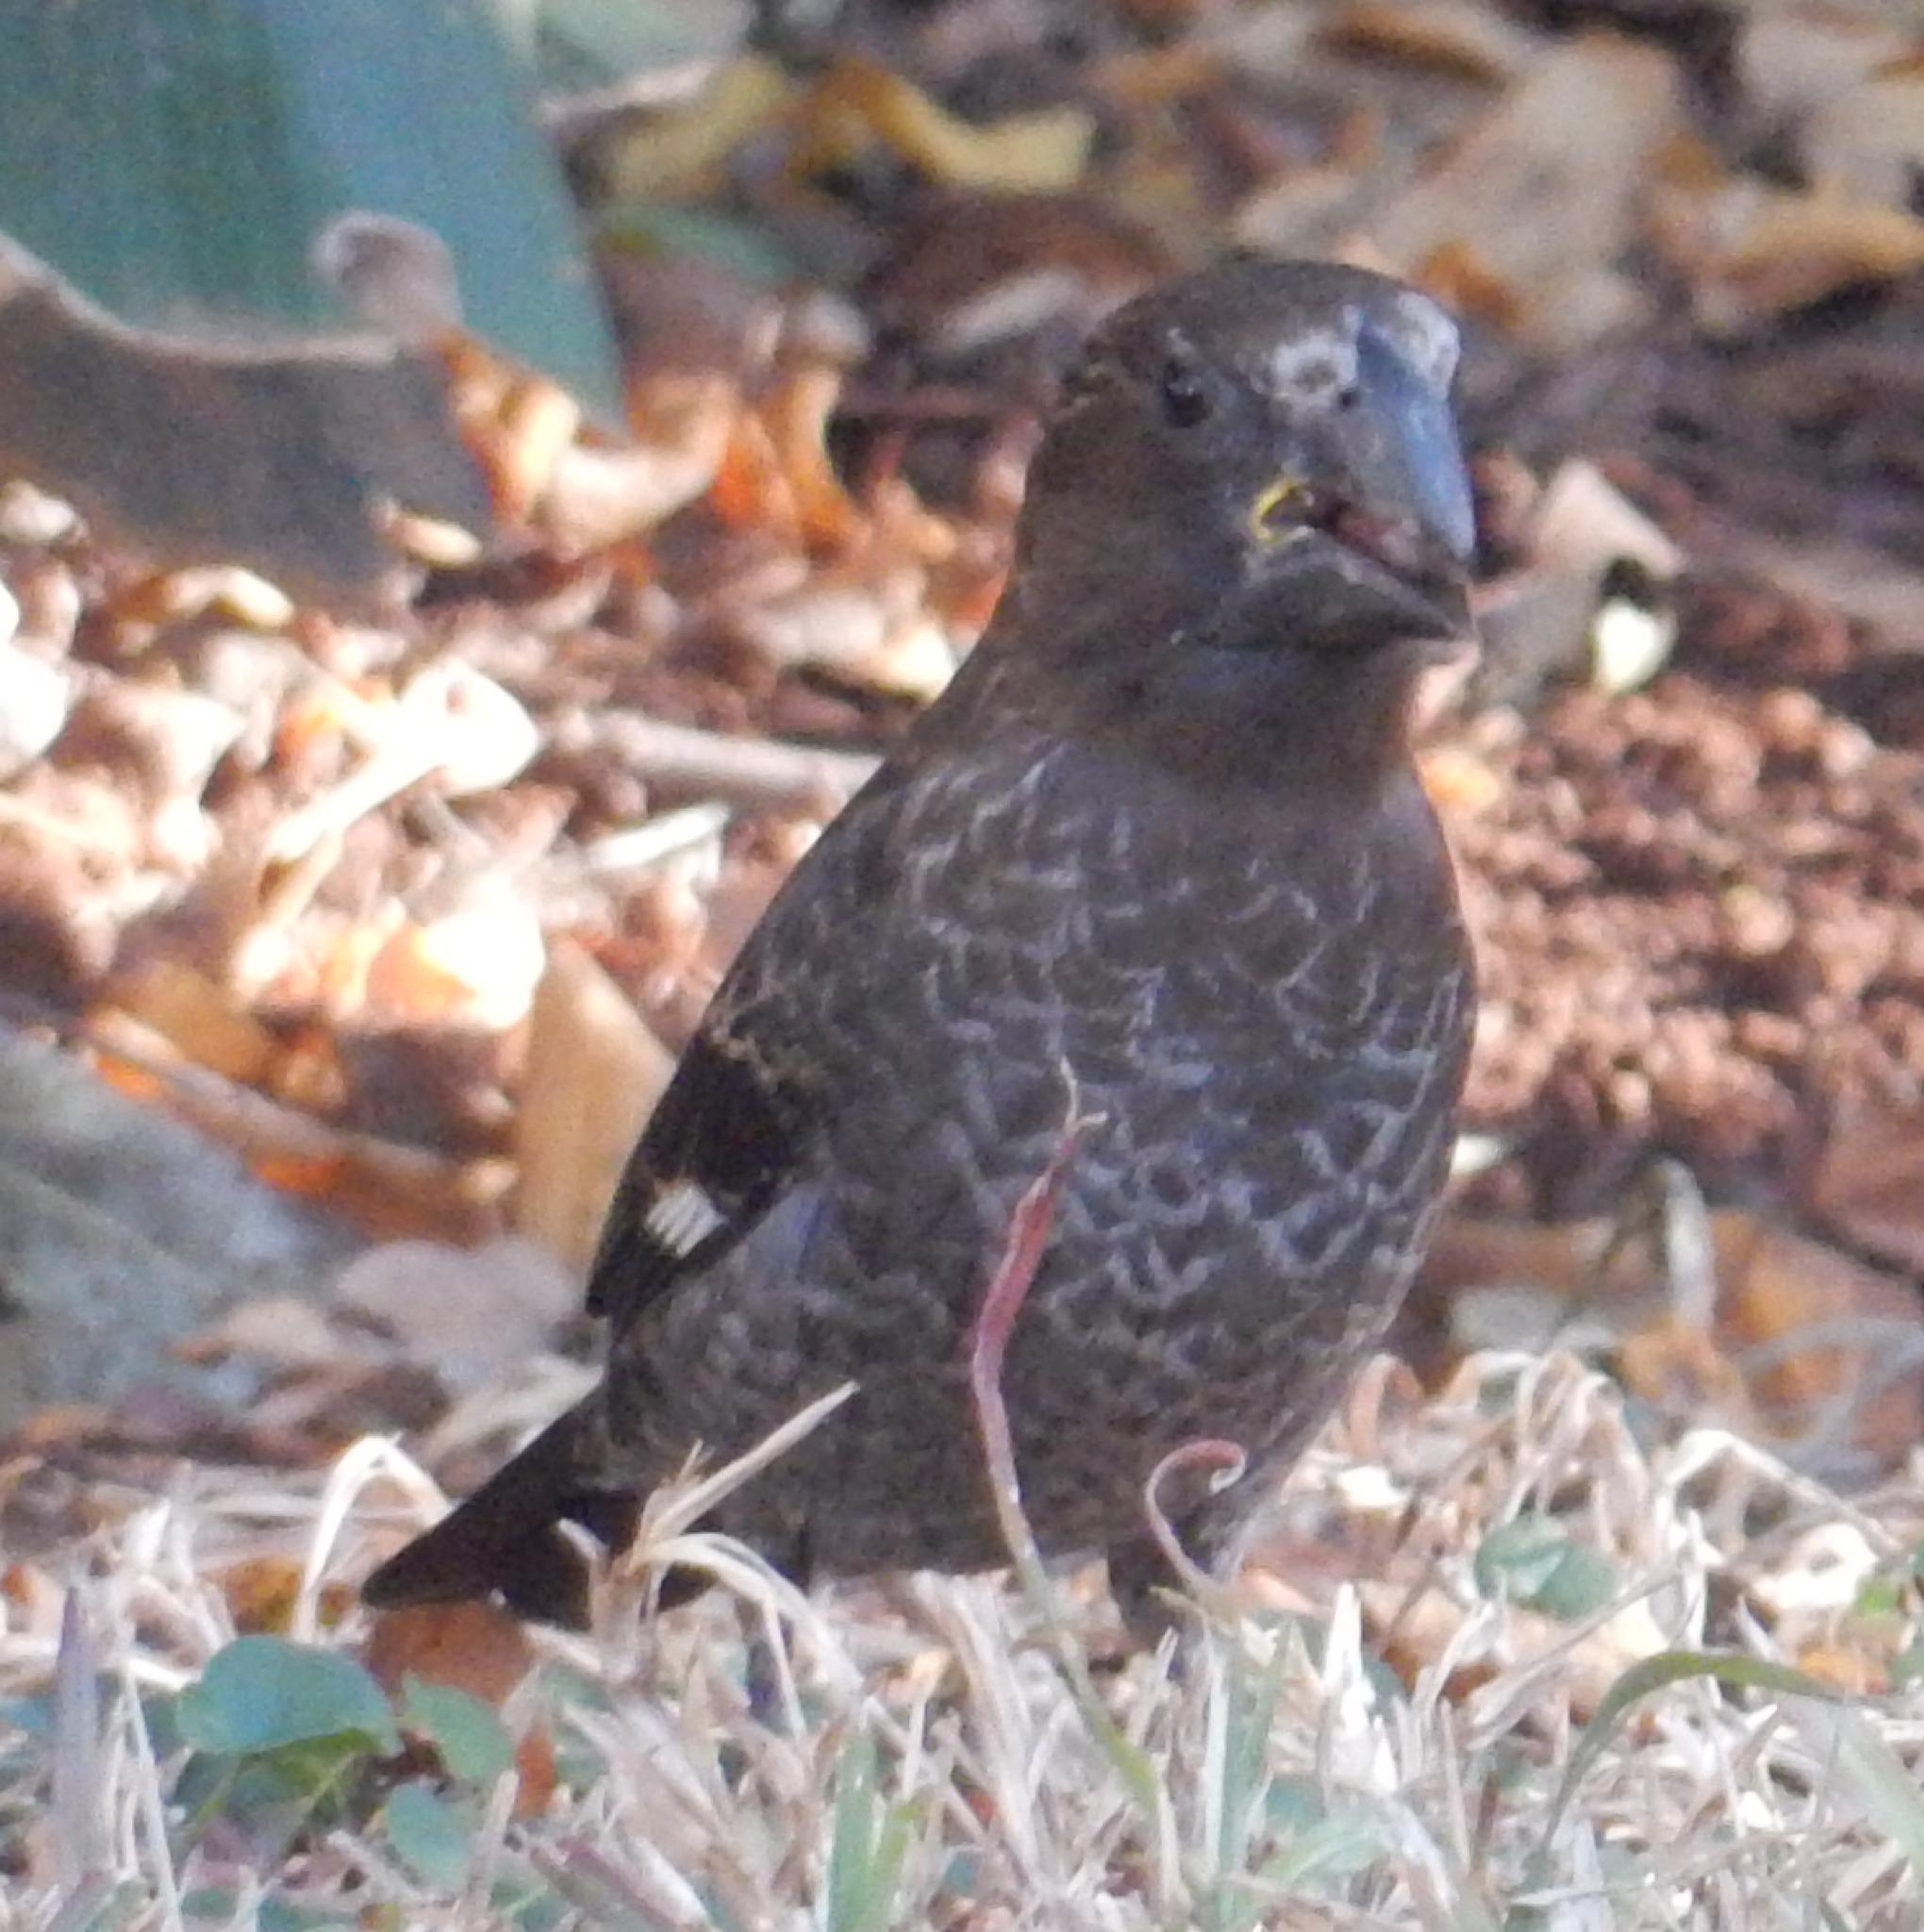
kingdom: Animalia
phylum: Chordata
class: Aves
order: Passeriformes
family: Ploceidae
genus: Amblyospiza
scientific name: Amblyospiza albifrons
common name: Thick-billed weaver
